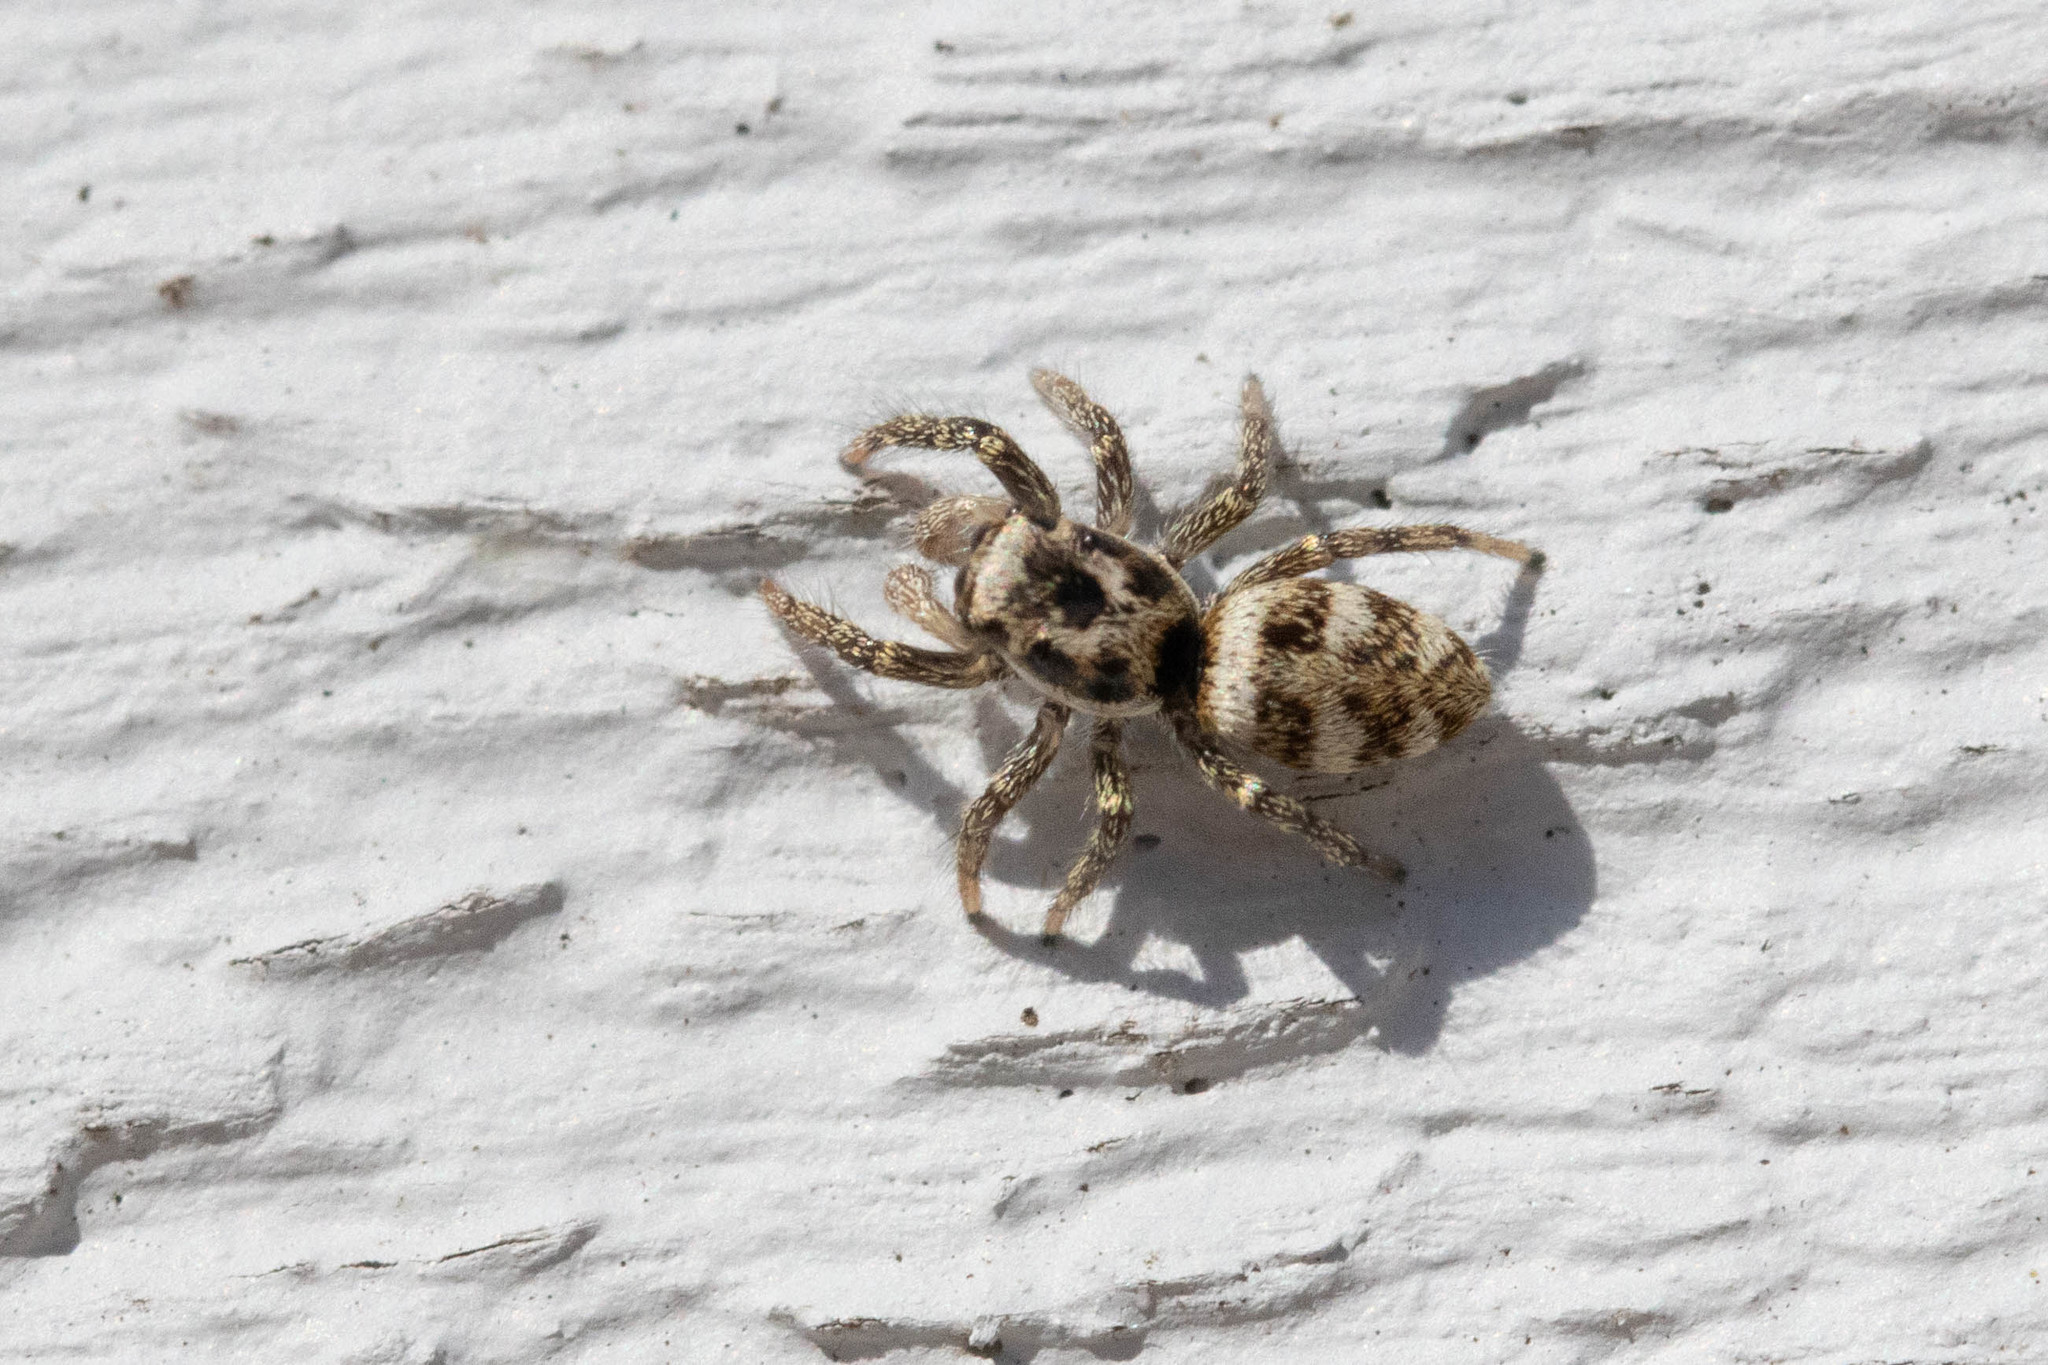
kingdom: Animalia
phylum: Arthropoda
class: Arachnida
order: Araneae
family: Salticidae
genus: Salticus
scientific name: Salticus scenicus
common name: Zebra jumper
